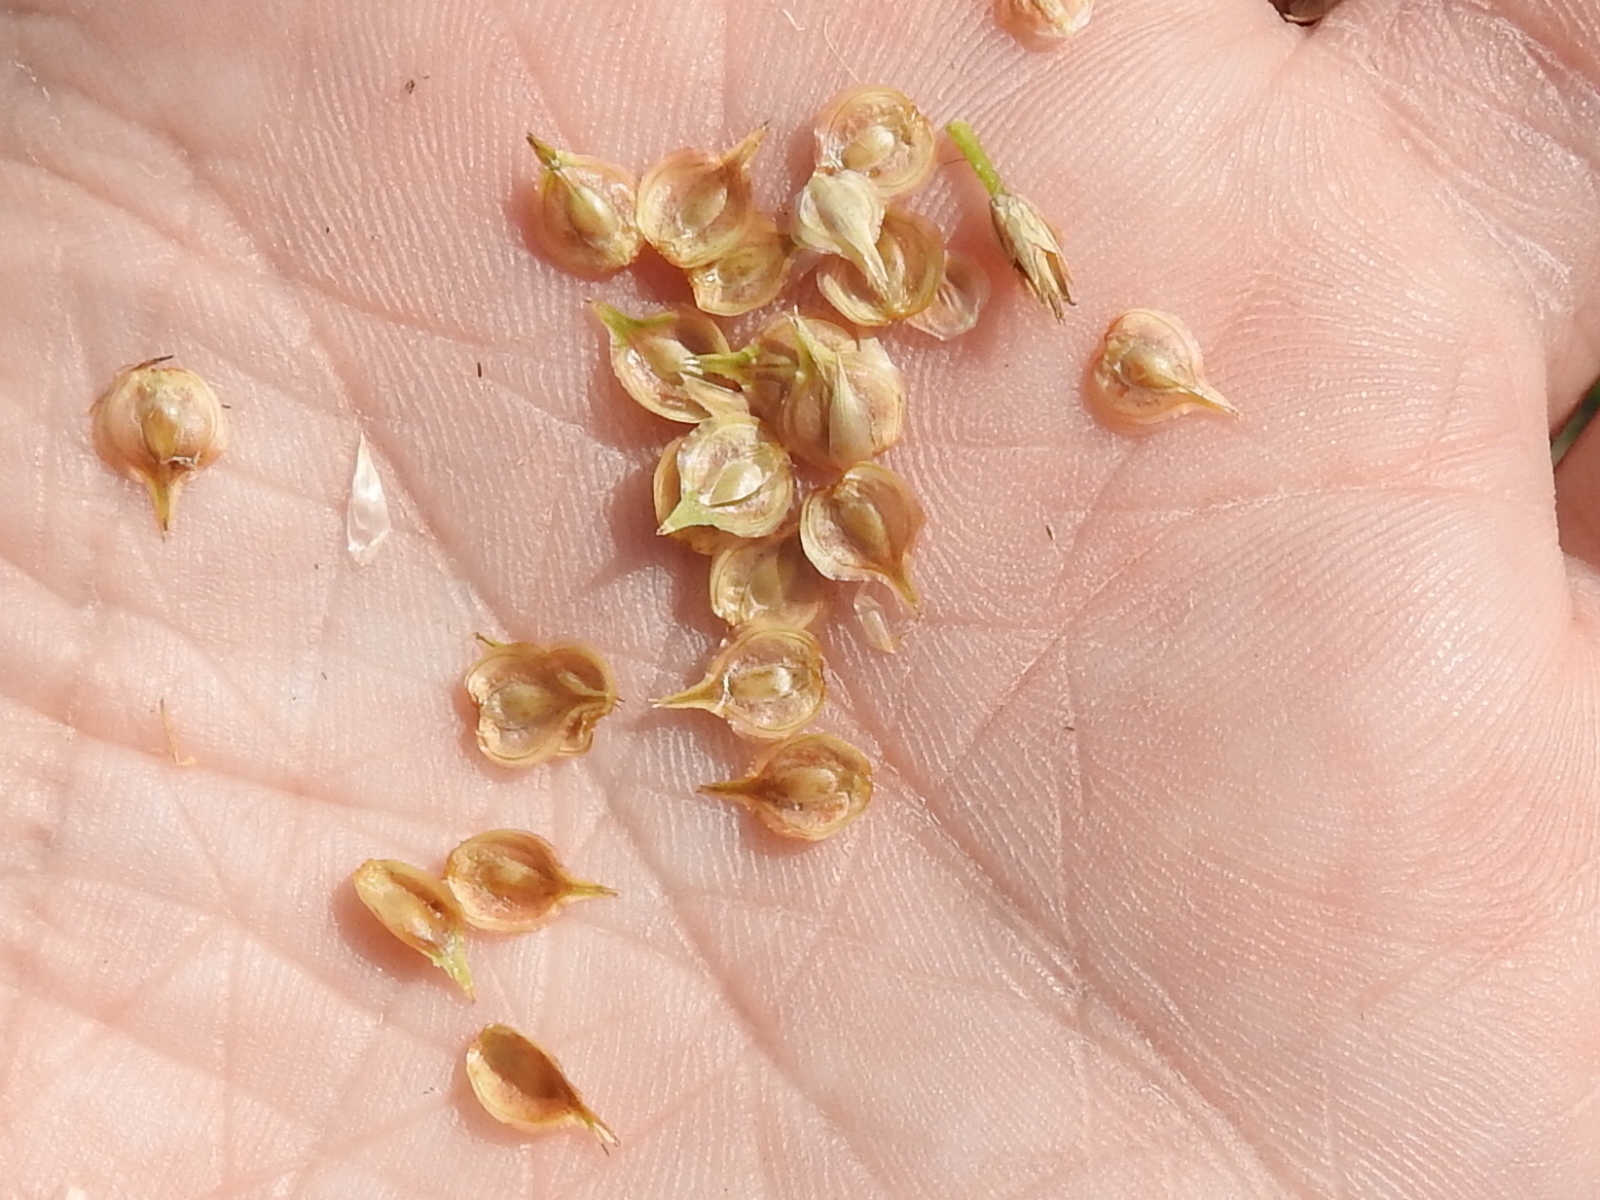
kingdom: Plantae
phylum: Tracheophyta
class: Liliopsida
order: Poales
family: Cyperaceae
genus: Carex
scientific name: Carex tetrastachya
